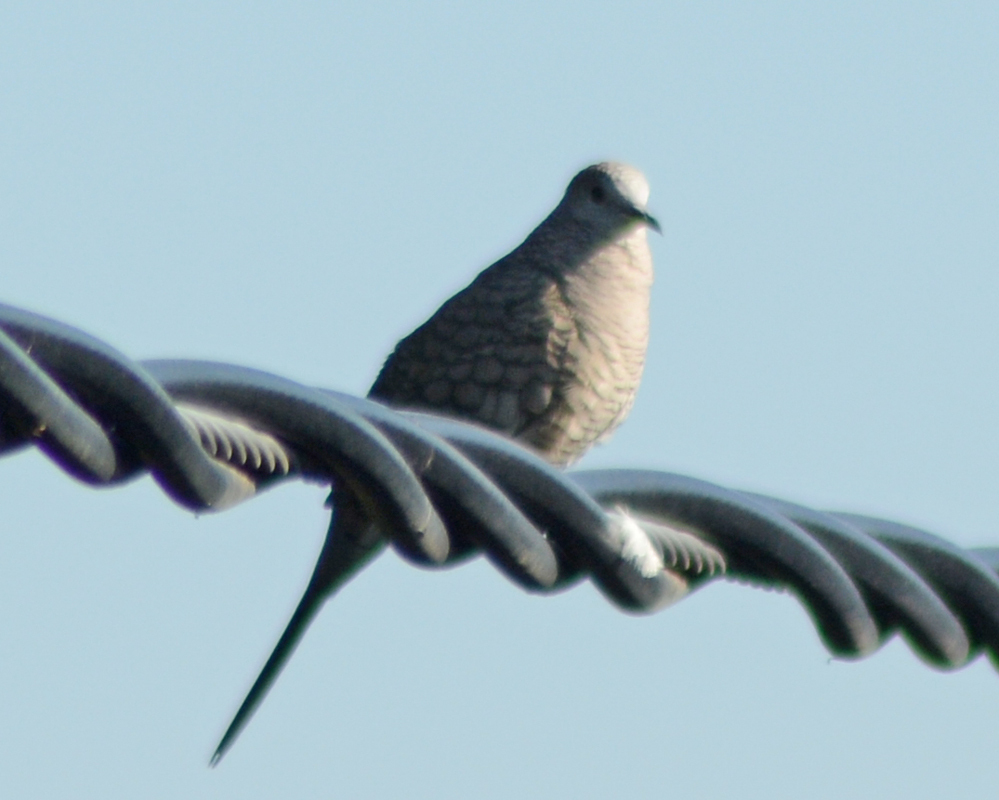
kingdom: Animalia
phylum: Chordata
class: Aves
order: Columbiformes
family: Columbidae
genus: Columbina
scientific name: Columbina inca
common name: Inca dove
